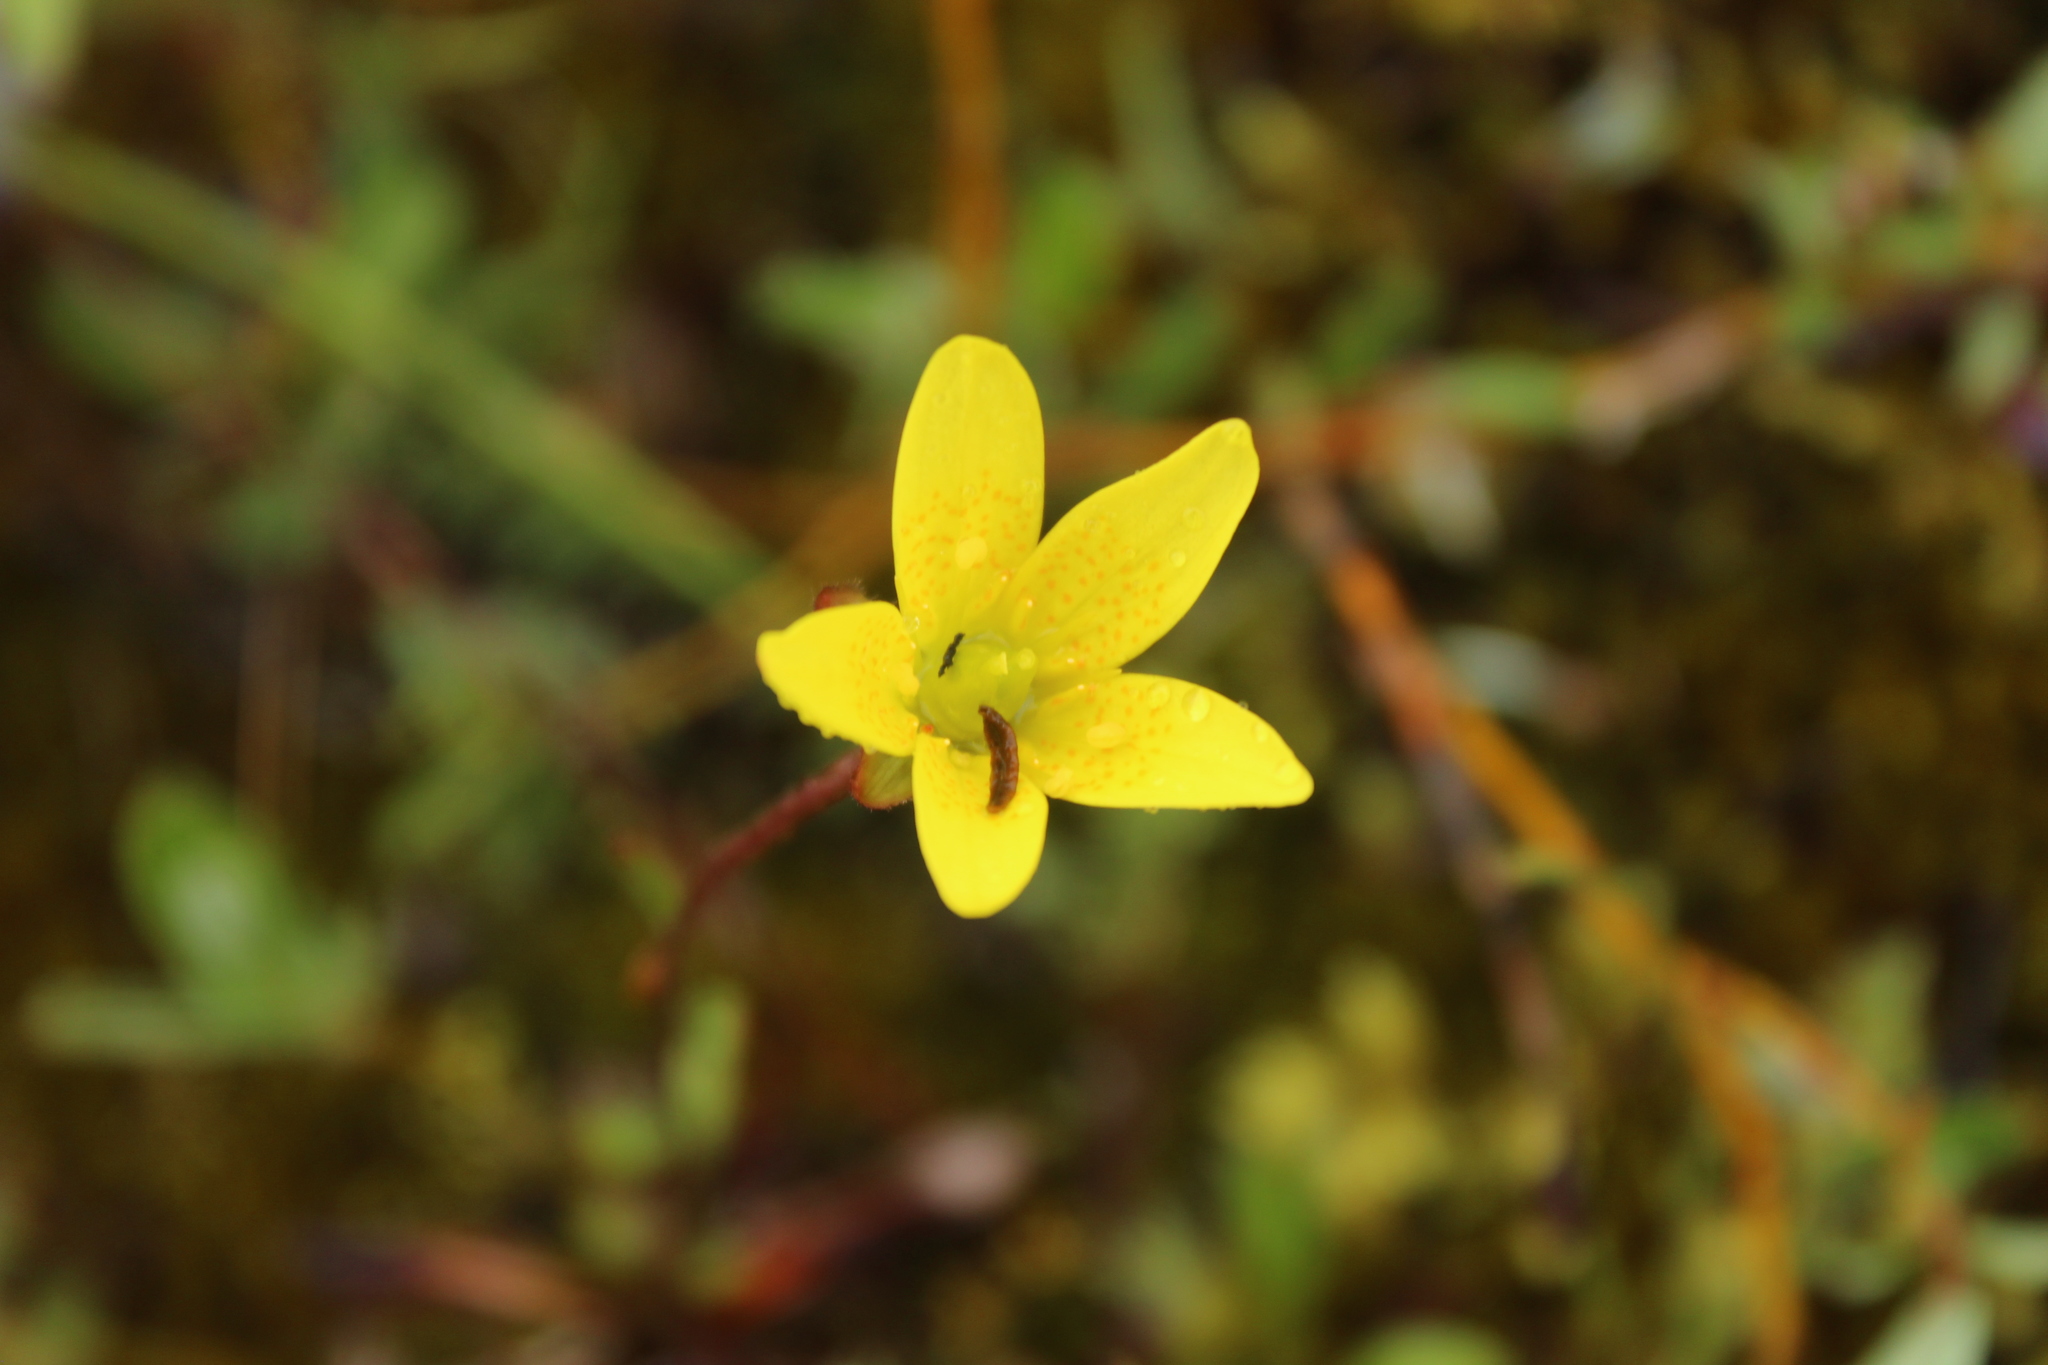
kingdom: Plantae
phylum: Tracheophyta
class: Magnoliopsida
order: Saxifragales
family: Saxifragaceae
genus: Saxifraga
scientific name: Saxifraga hirculus
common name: Yellow marsh saxifrage
